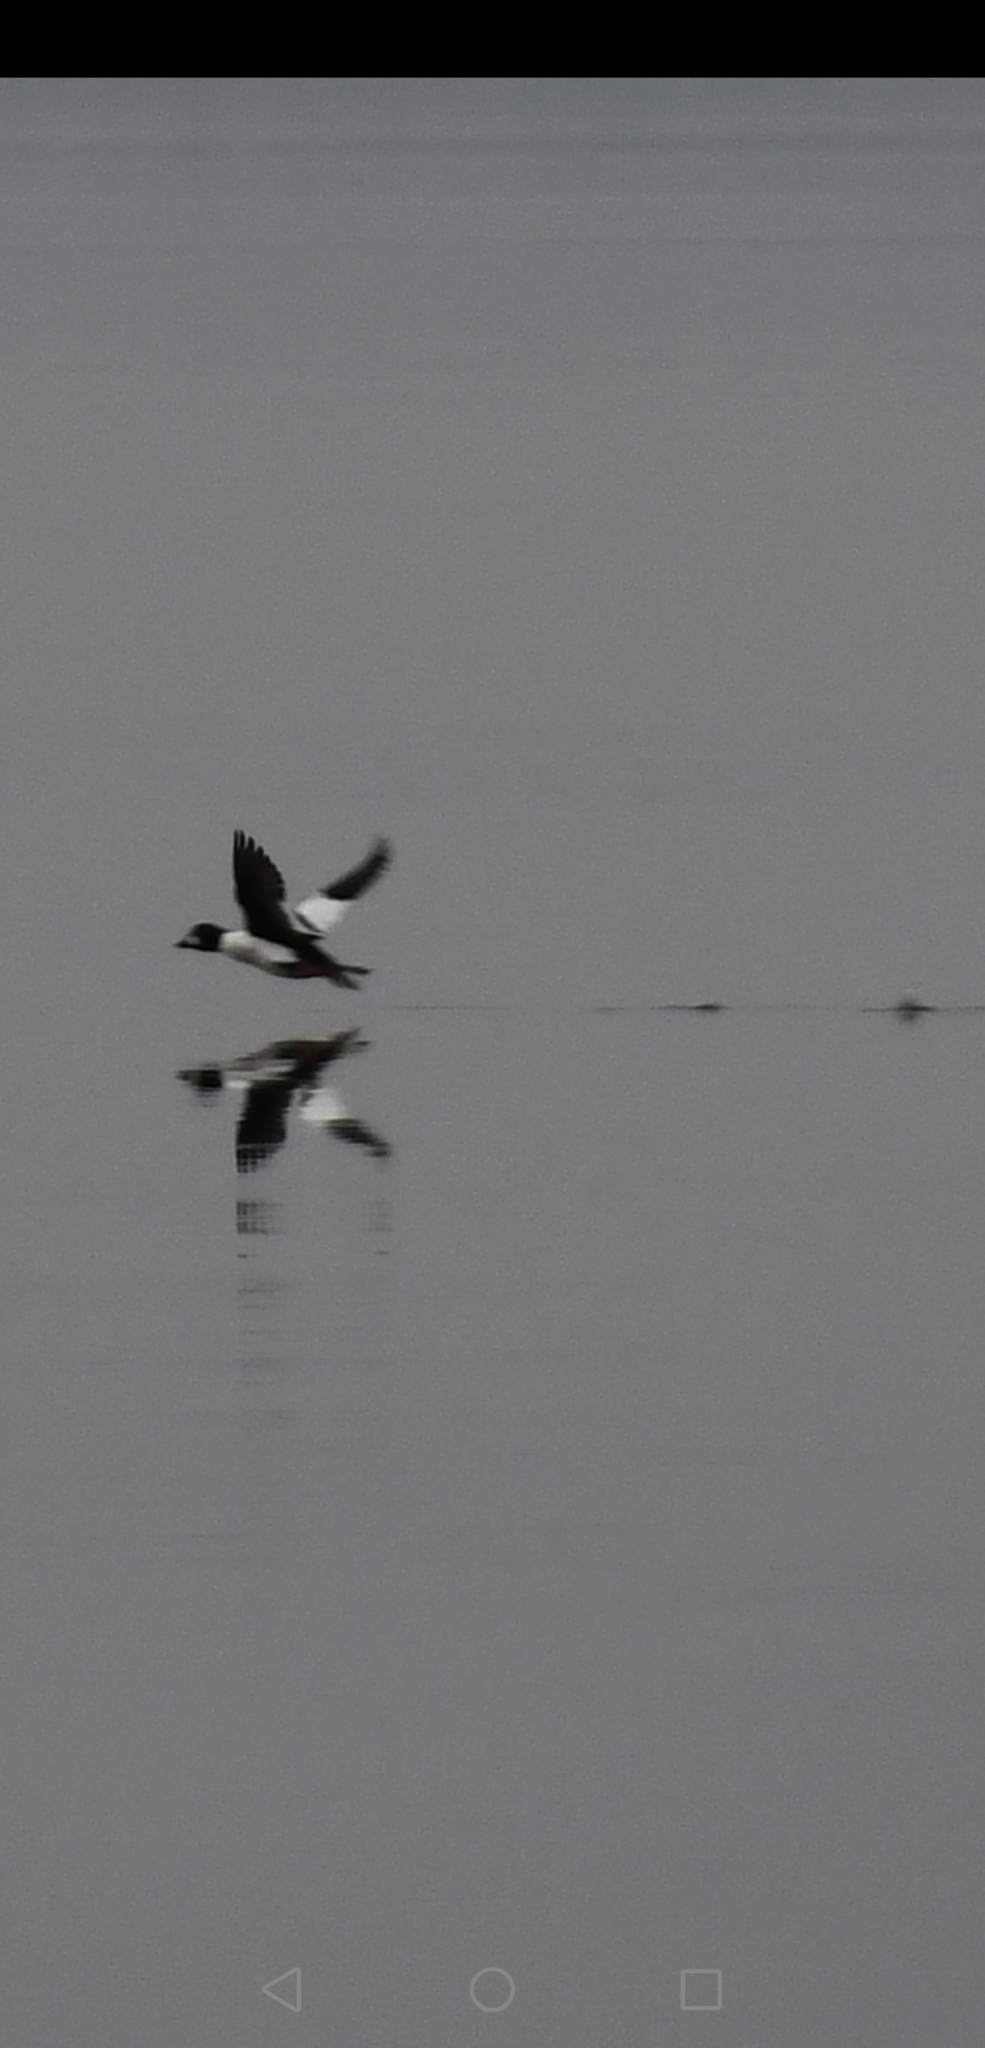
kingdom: Animalia
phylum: Chordata
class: Aves
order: Anseriformes
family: Anatidae
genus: Bucephala
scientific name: Bucephala clangula
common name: Common goldeneye
